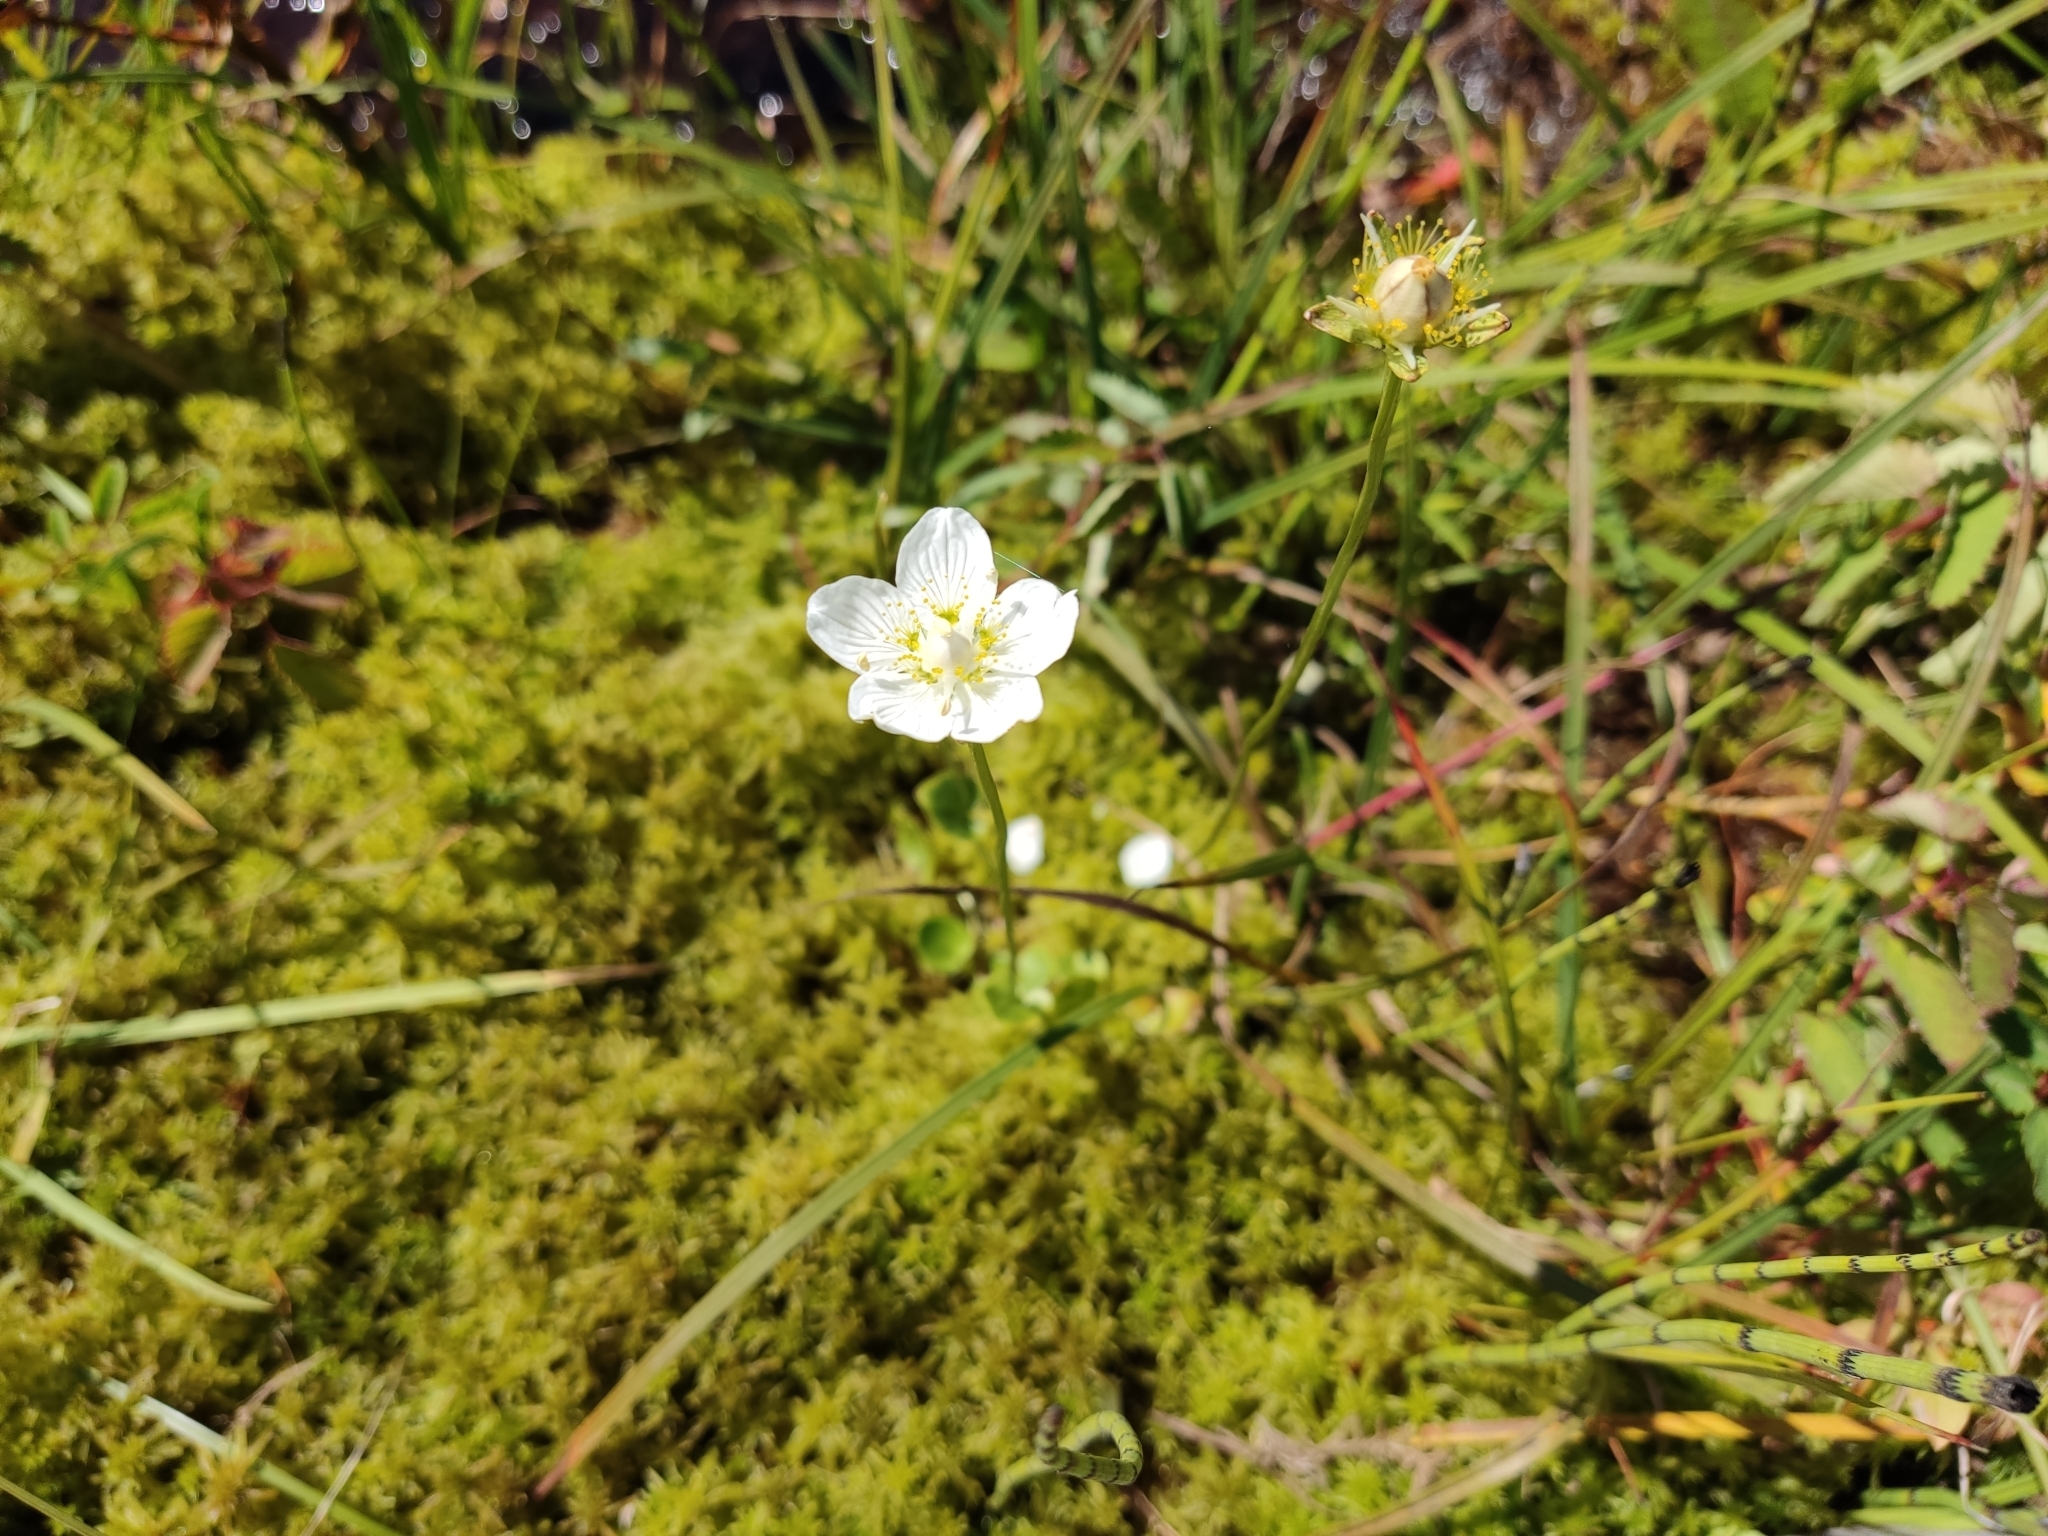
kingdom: Plantae
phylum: Tracheophyta
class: Magnoliopsida
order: Celastrales
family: Parnassiaceae
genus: Parnassia
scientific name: Parnassia palustris
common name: Grass-of-parnassus
